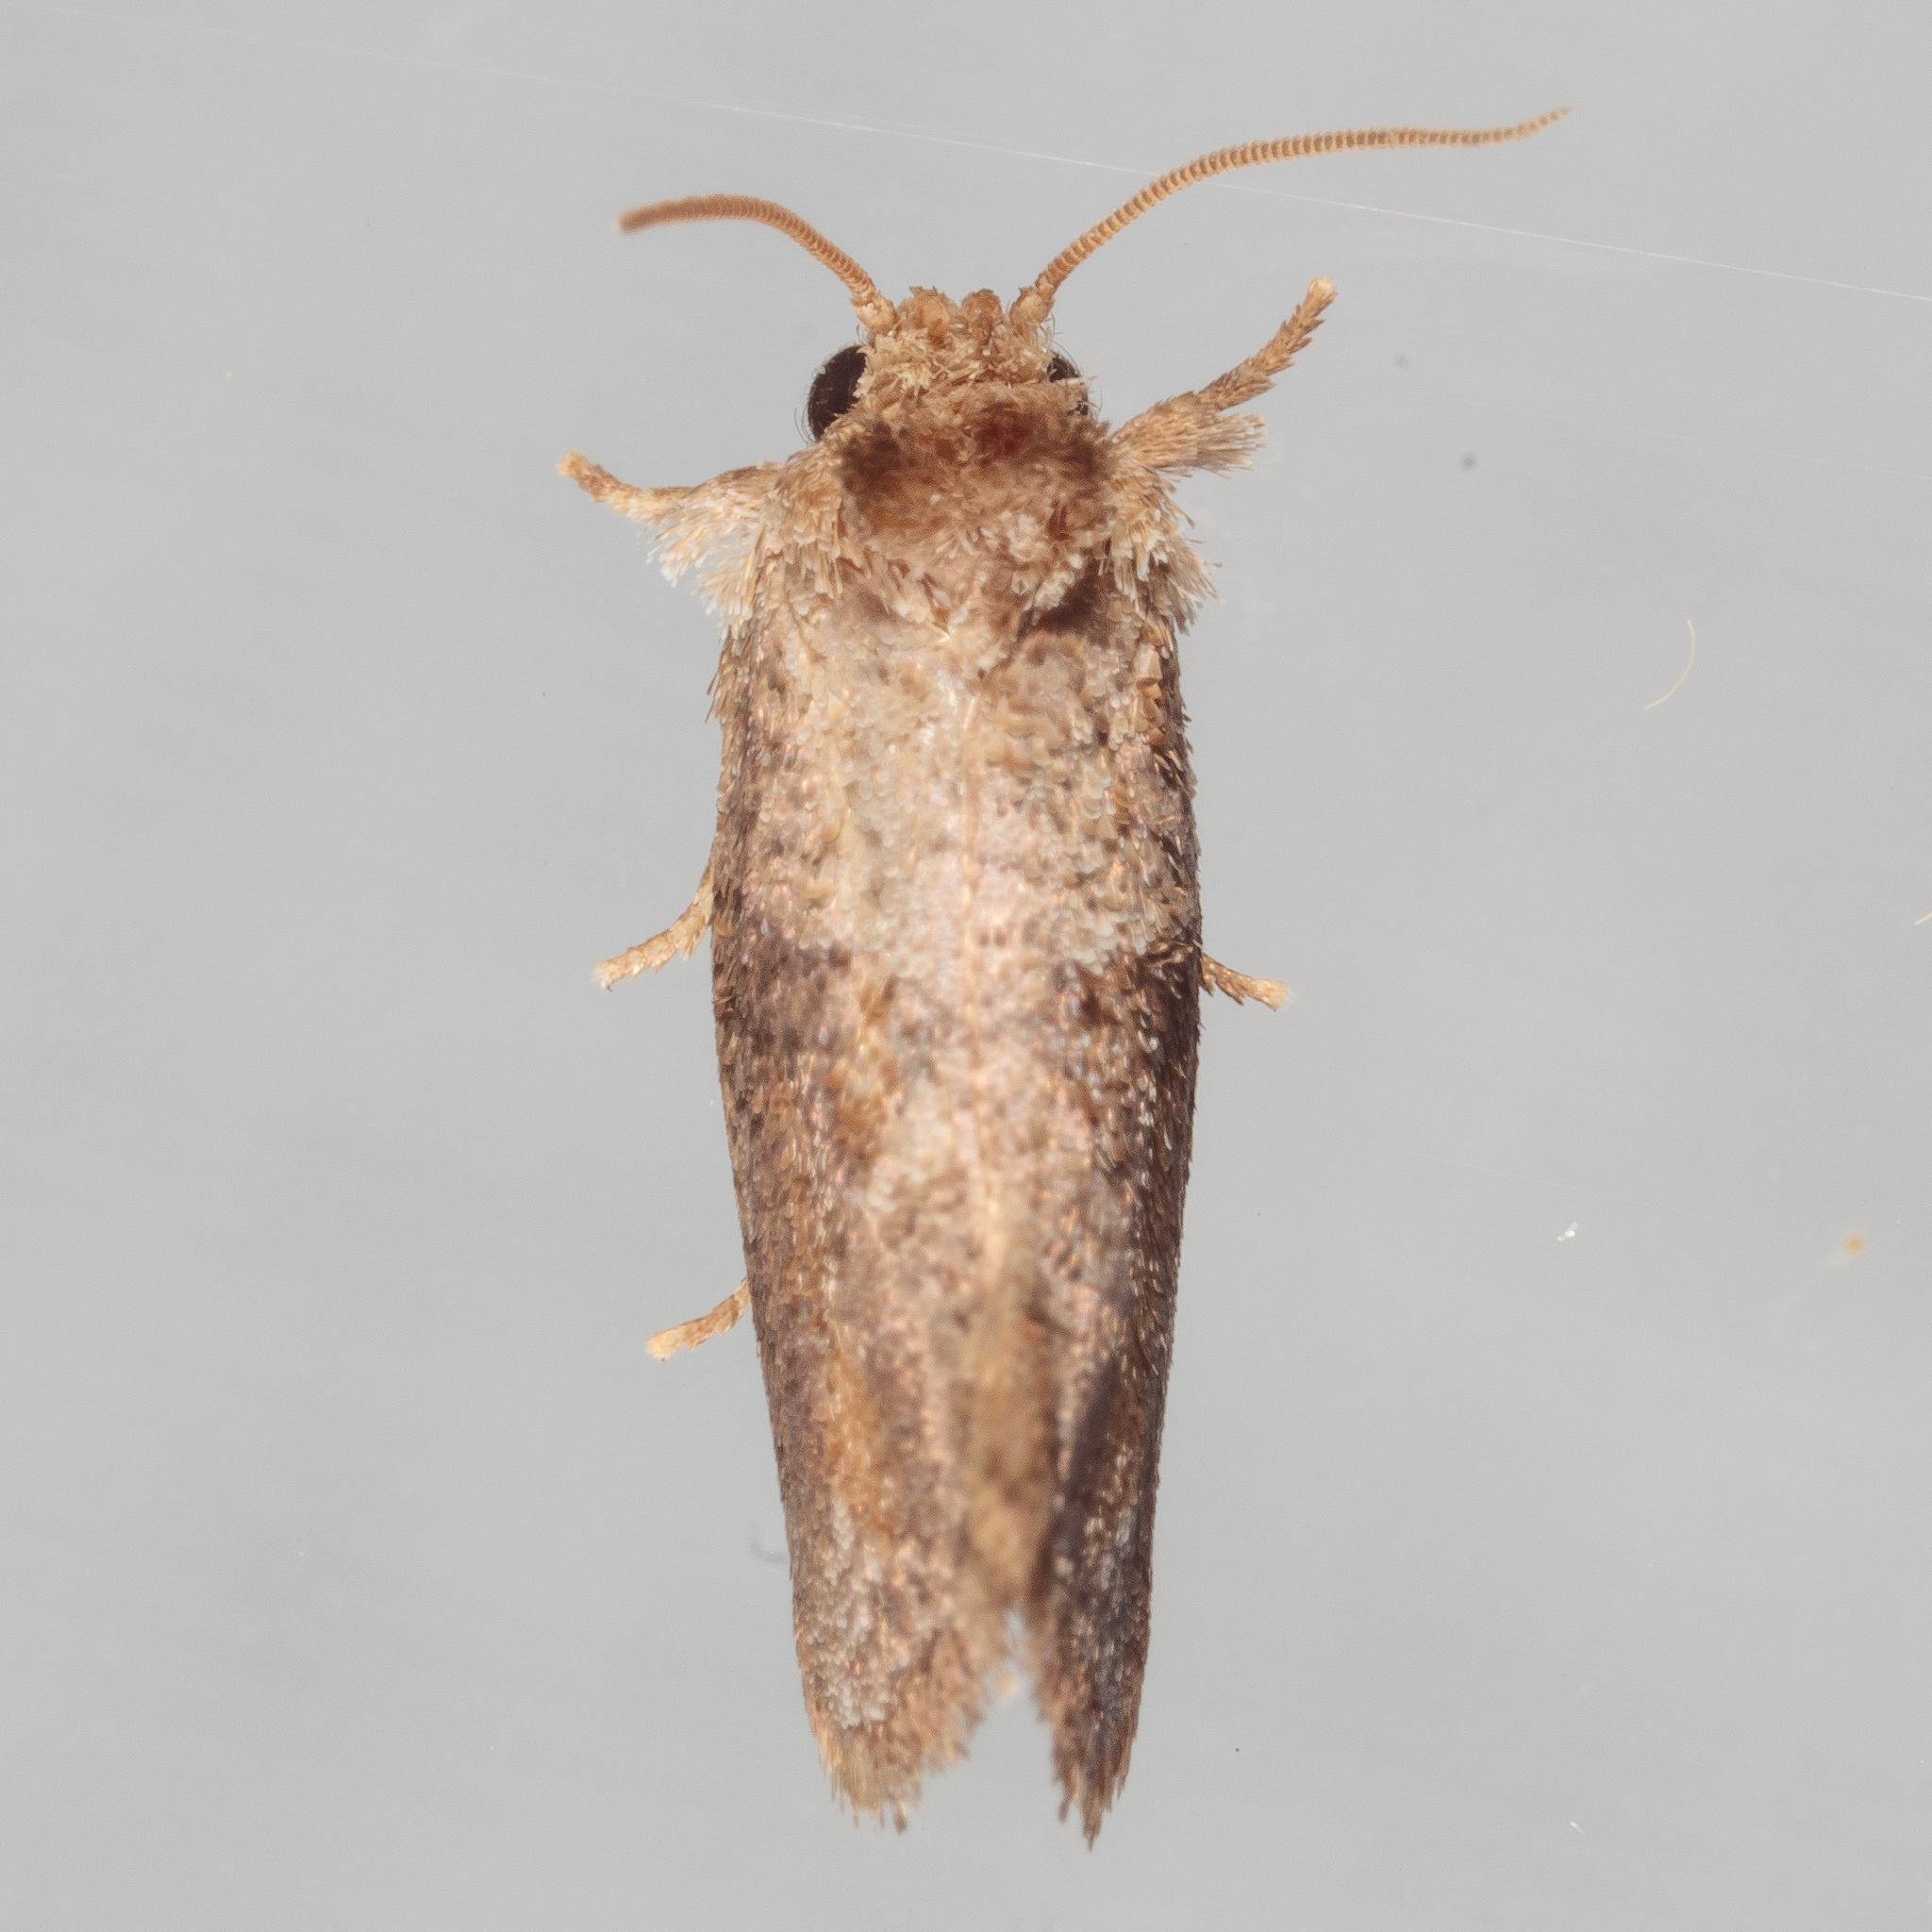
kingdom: Animalia
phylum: Arthropoda
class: Insecta
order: Lepidoptera
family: Tineidae
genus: Acrolophus
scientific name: Acrolophus piger
